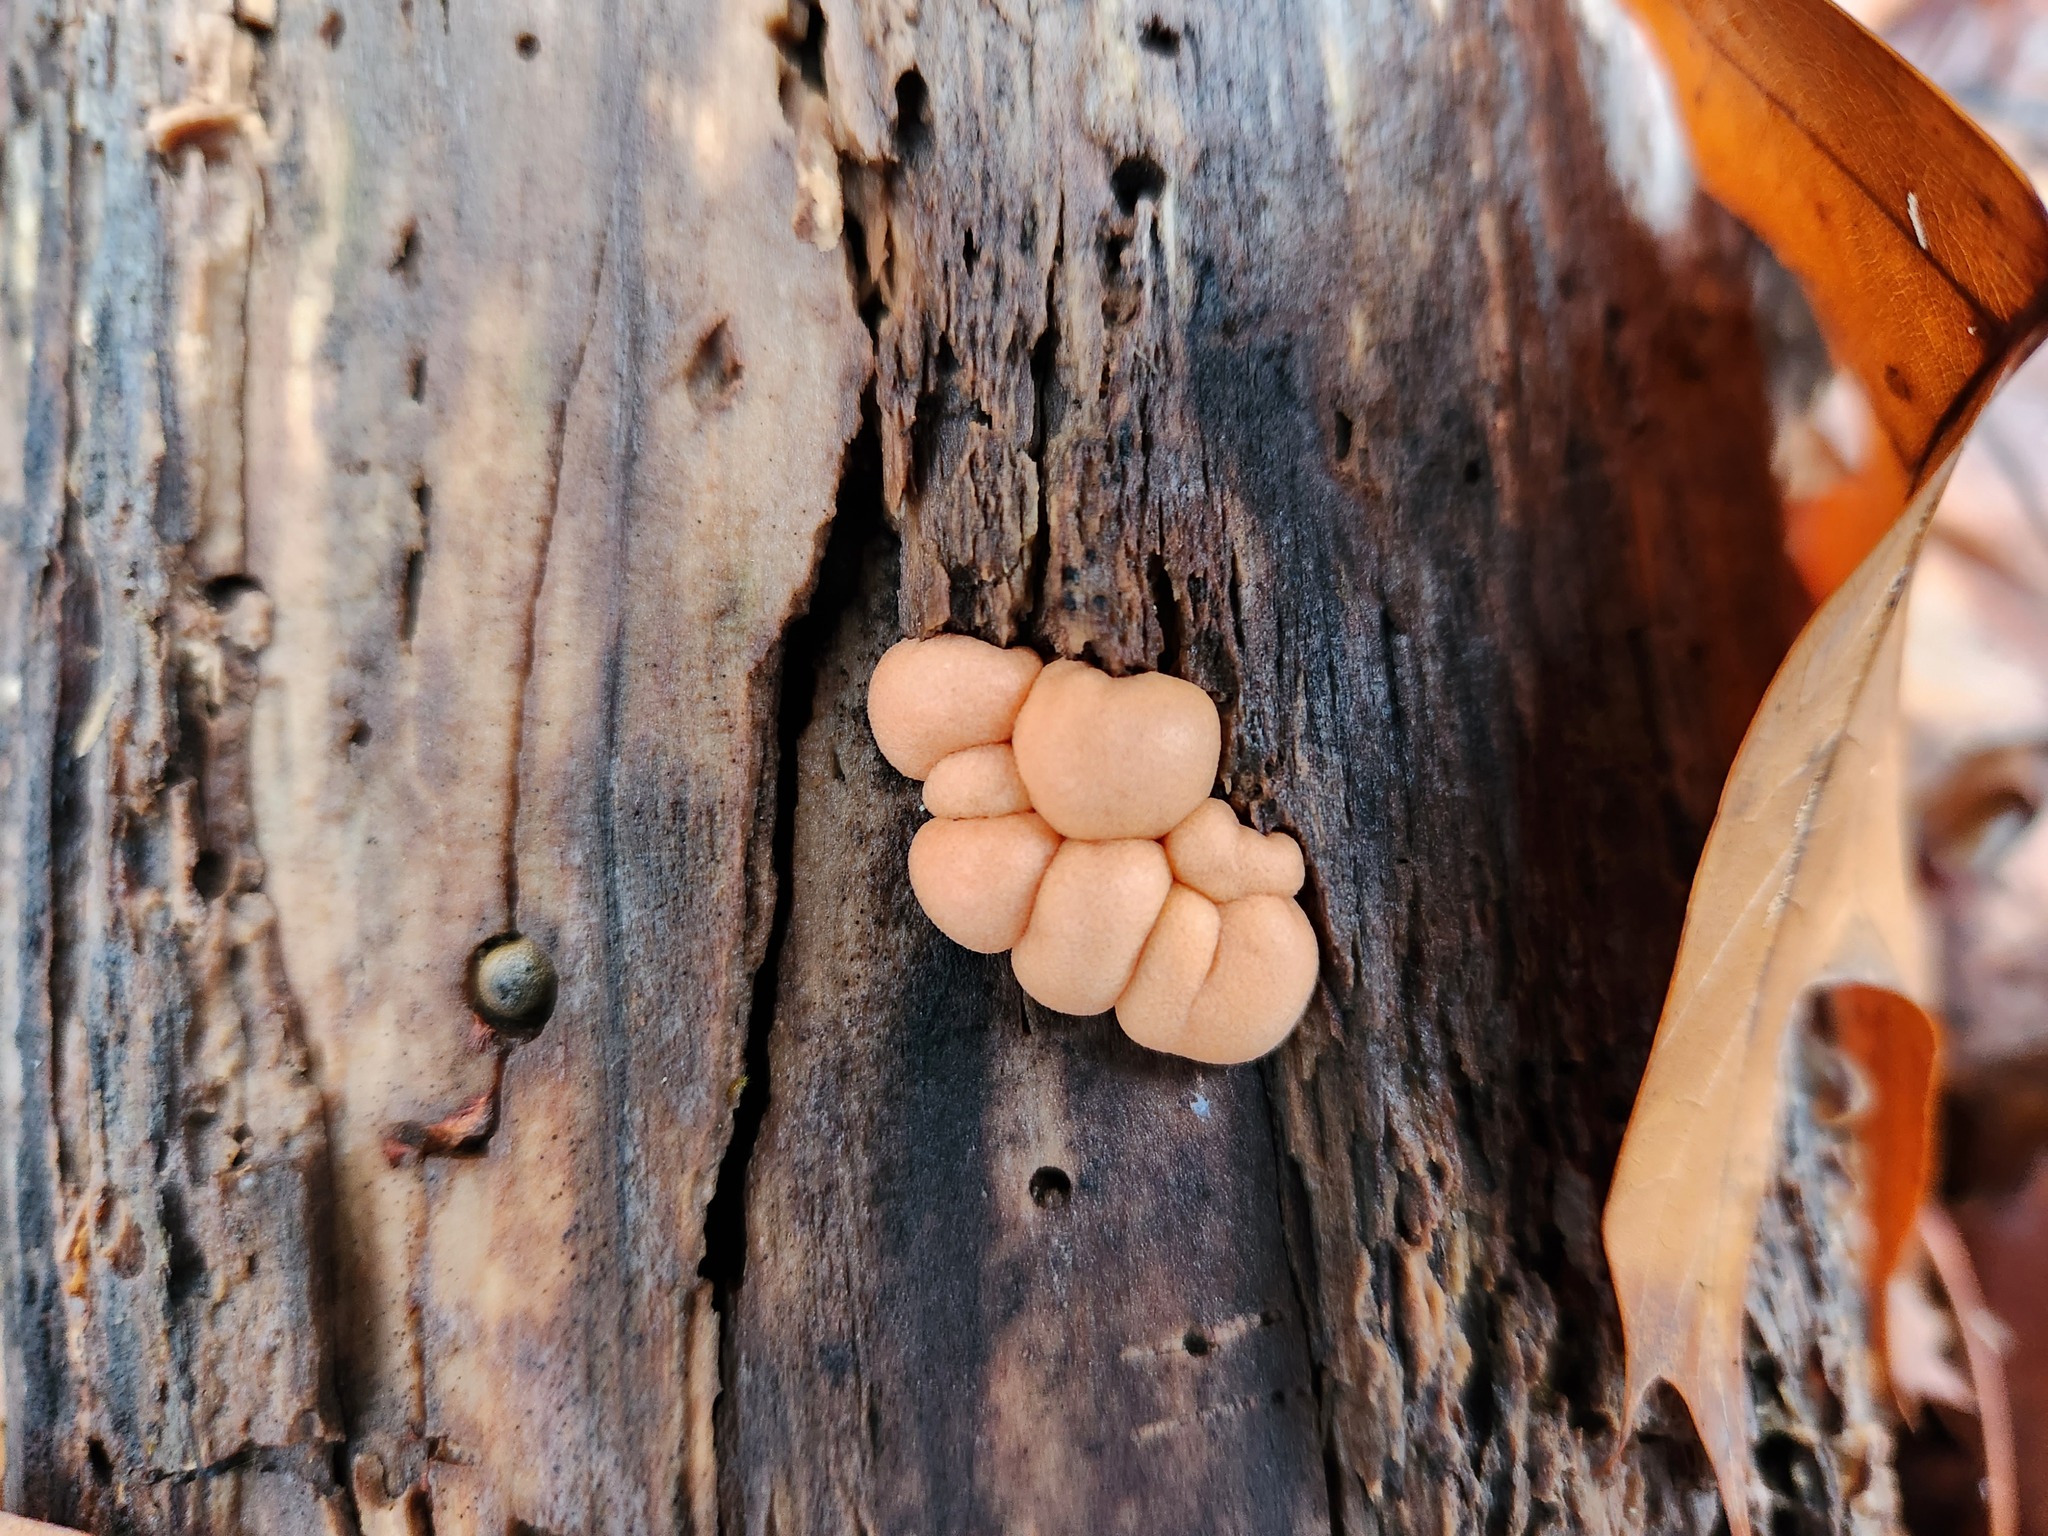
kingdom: Protozoa
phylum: Mycetozoa
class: Myxomycetes
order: Cribrariales
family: Tubiferaceae
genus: Lycogala
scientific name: Lycogala epidendrum
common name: Wolf's milk
